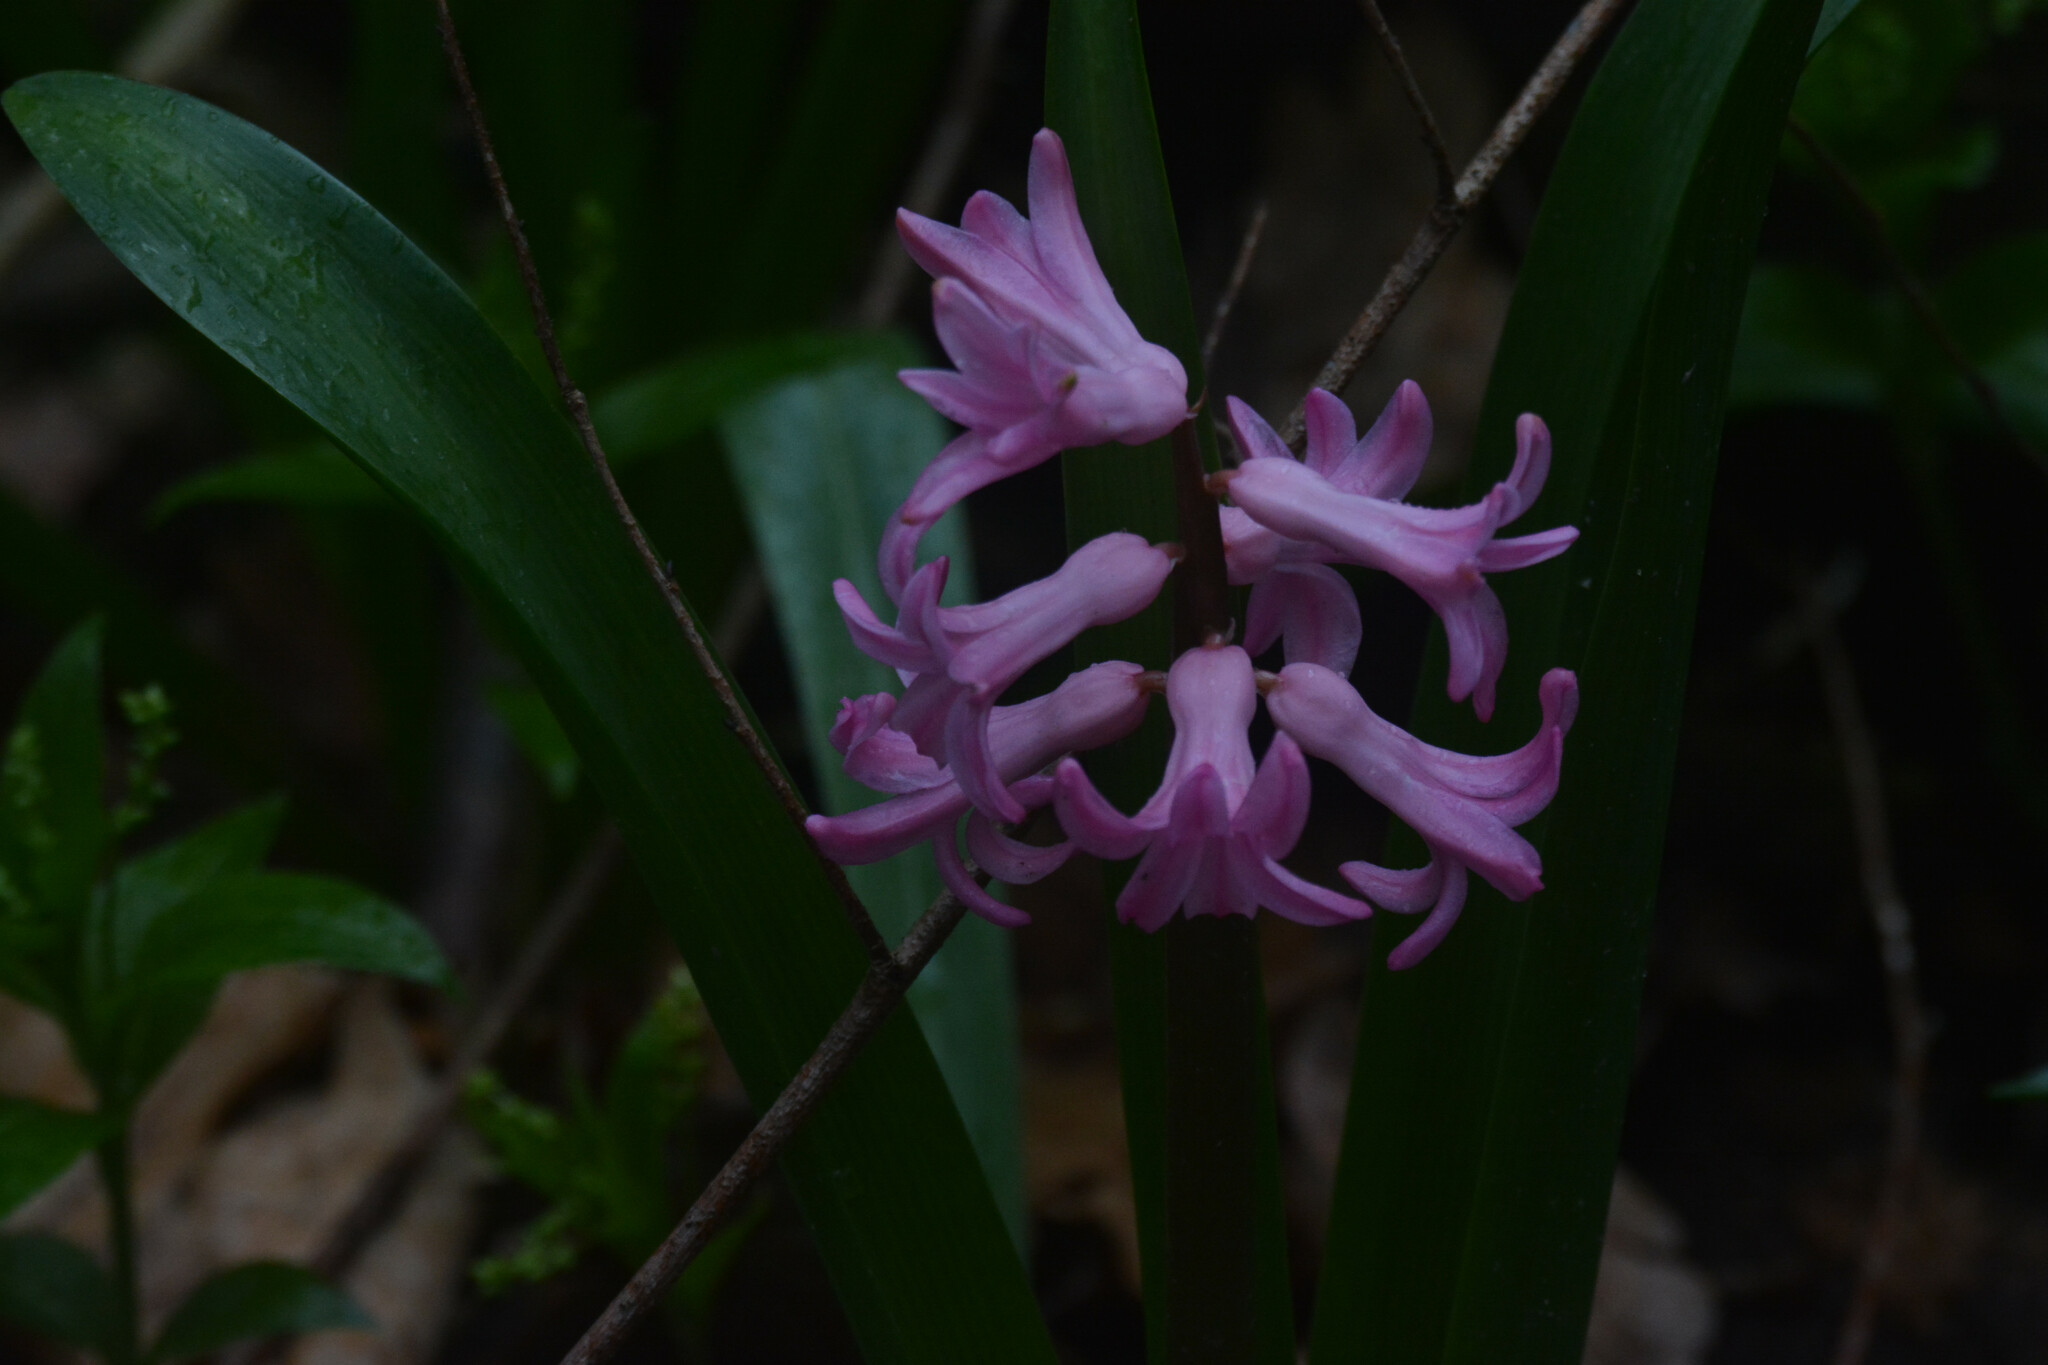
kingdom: Plantae
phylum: Tracheophyta
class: Liliopsida
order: Asparagales
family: Asparagaceae
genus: Hyacinthus
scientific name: Hyacinthus orientalis
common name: Hyacinth
